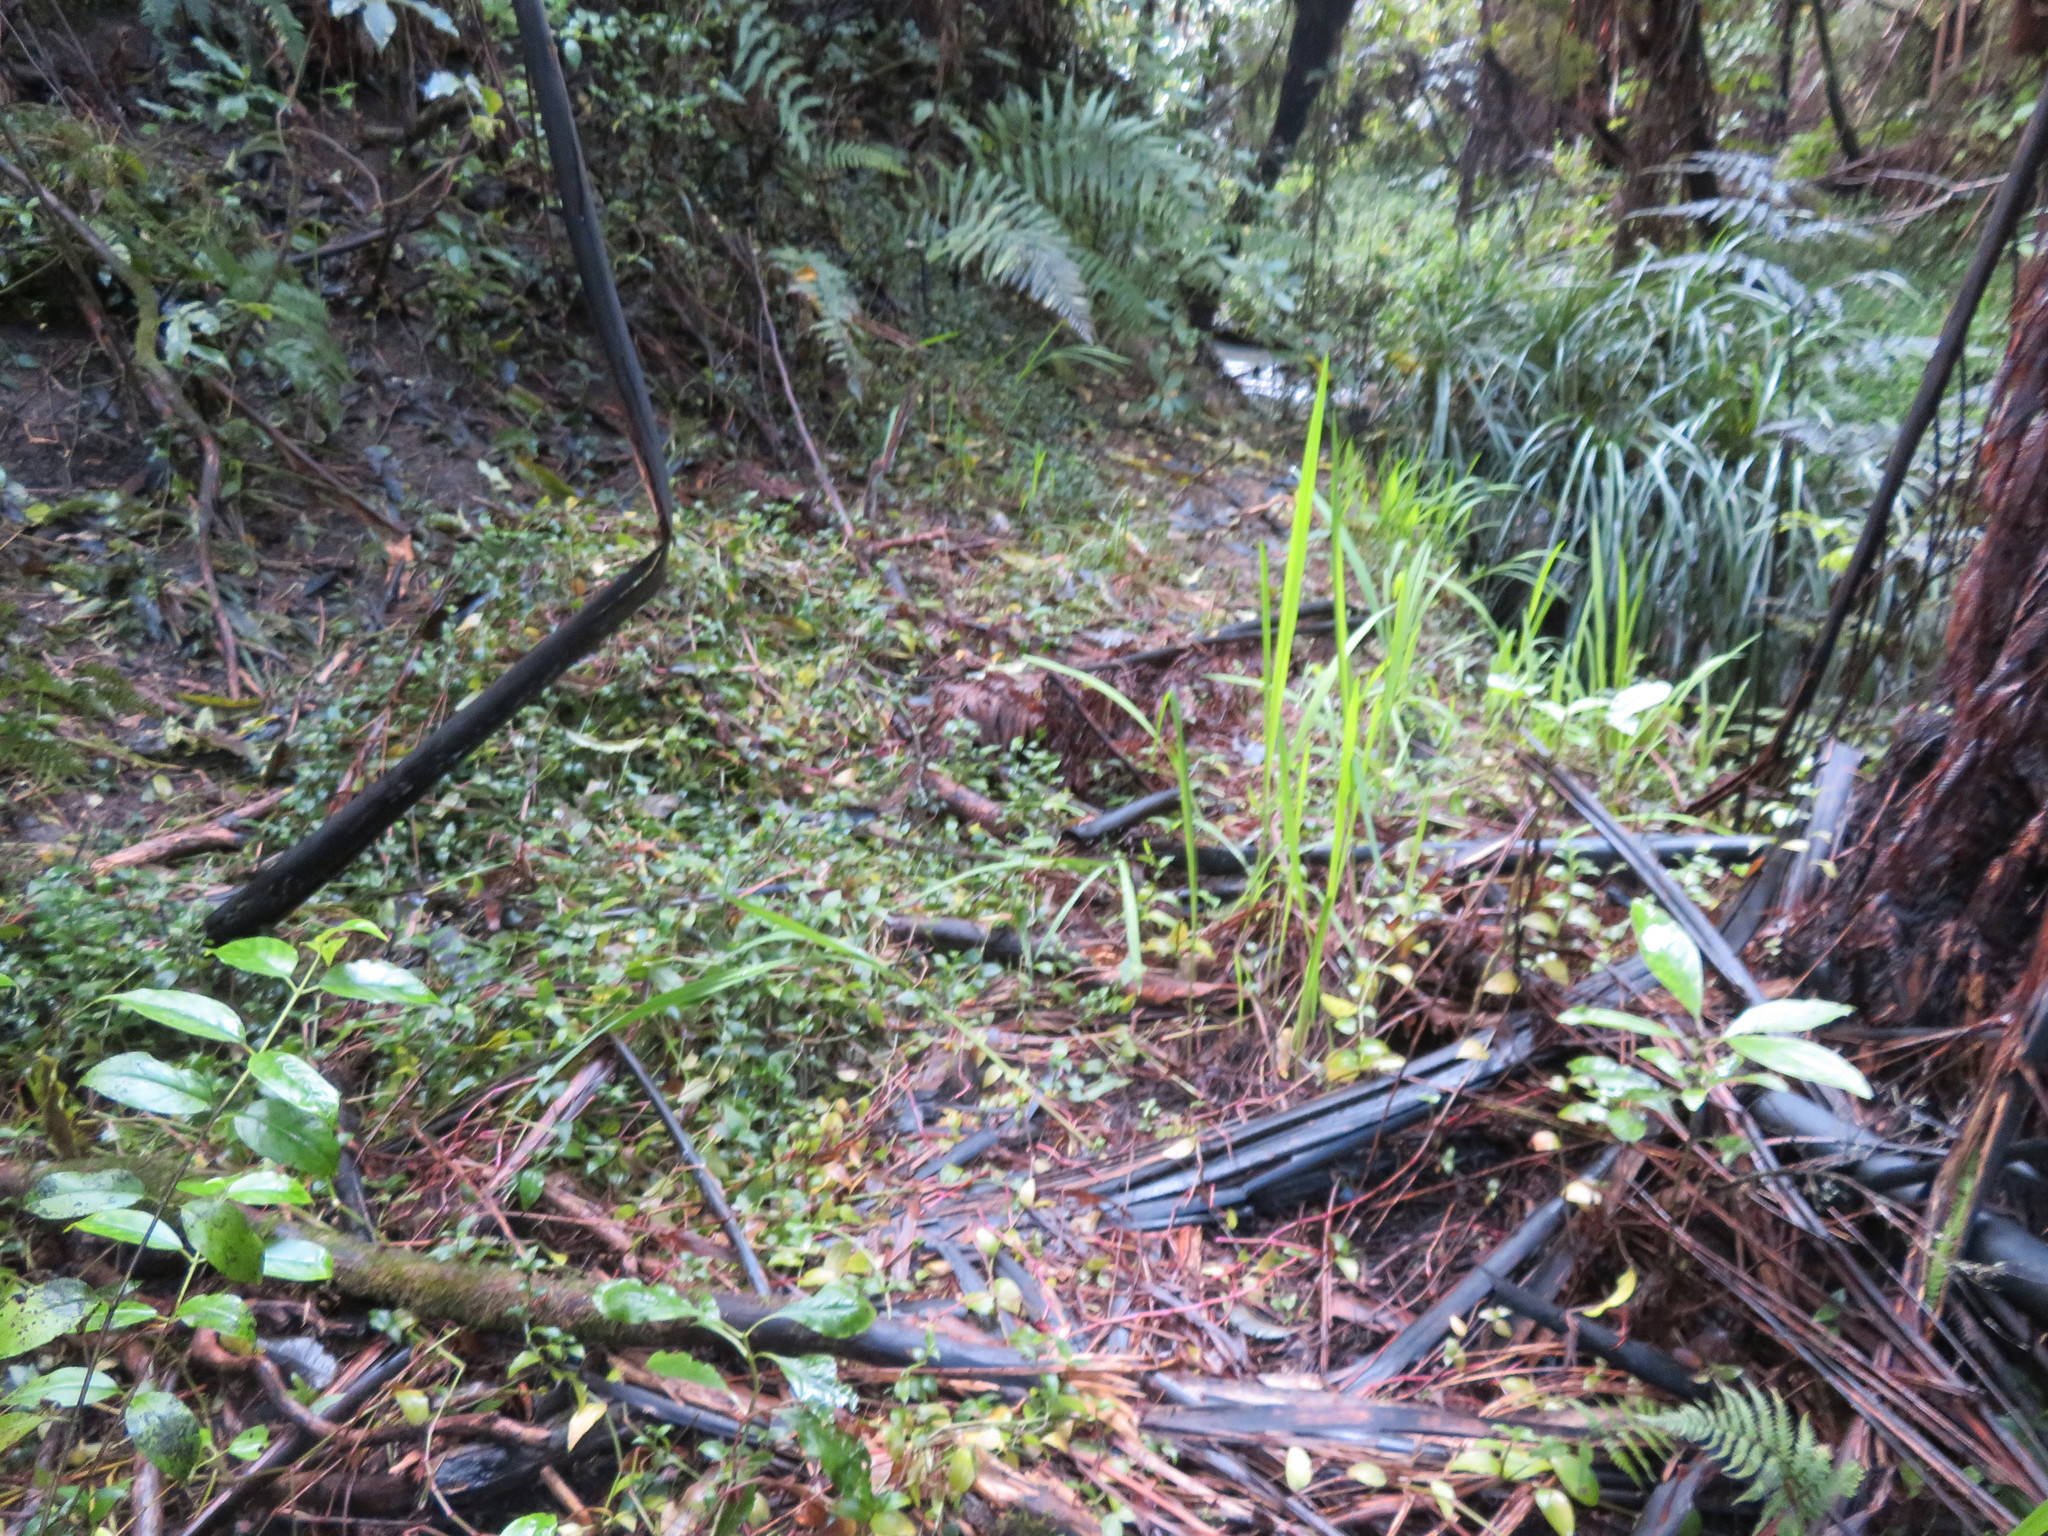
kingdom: Plantae
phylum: Tracheophyta
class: Magnoliopsida
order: Gentianales
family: Loganiaceae
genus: Geniostoma
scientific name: Geniostoma ligustrifolium
